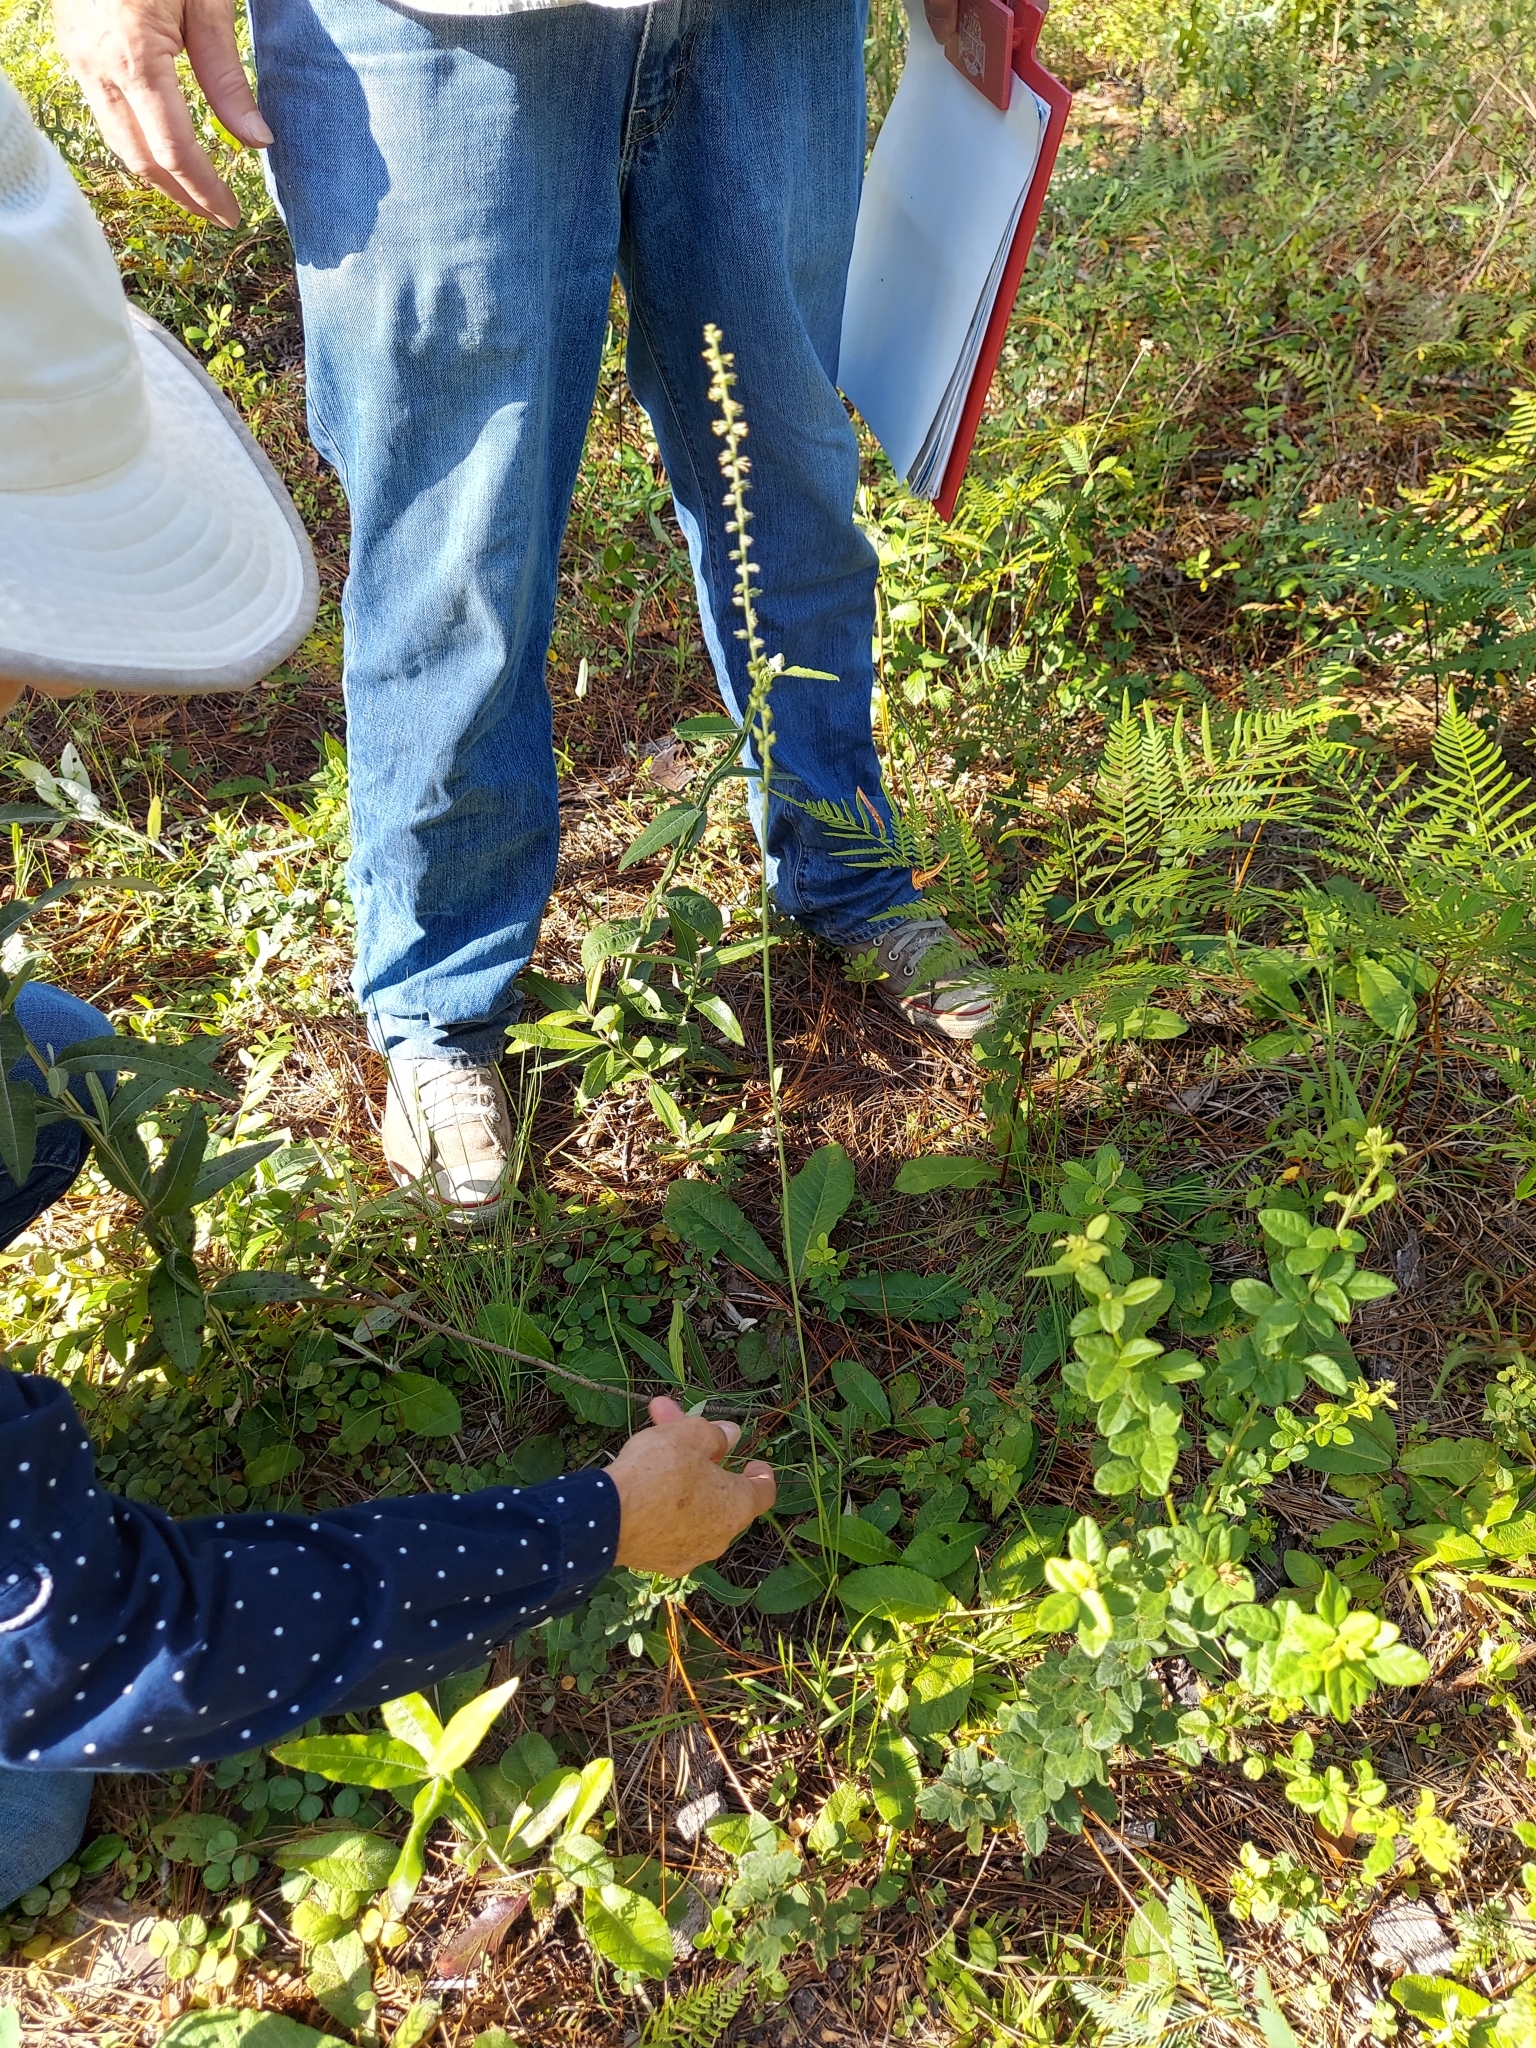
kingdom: Plantae
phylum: Tracheophyta
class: Liliopsida
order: Liliales
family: Melanthiaceae
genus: Schoenocaulon
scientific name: Schoenocaulon dubium
